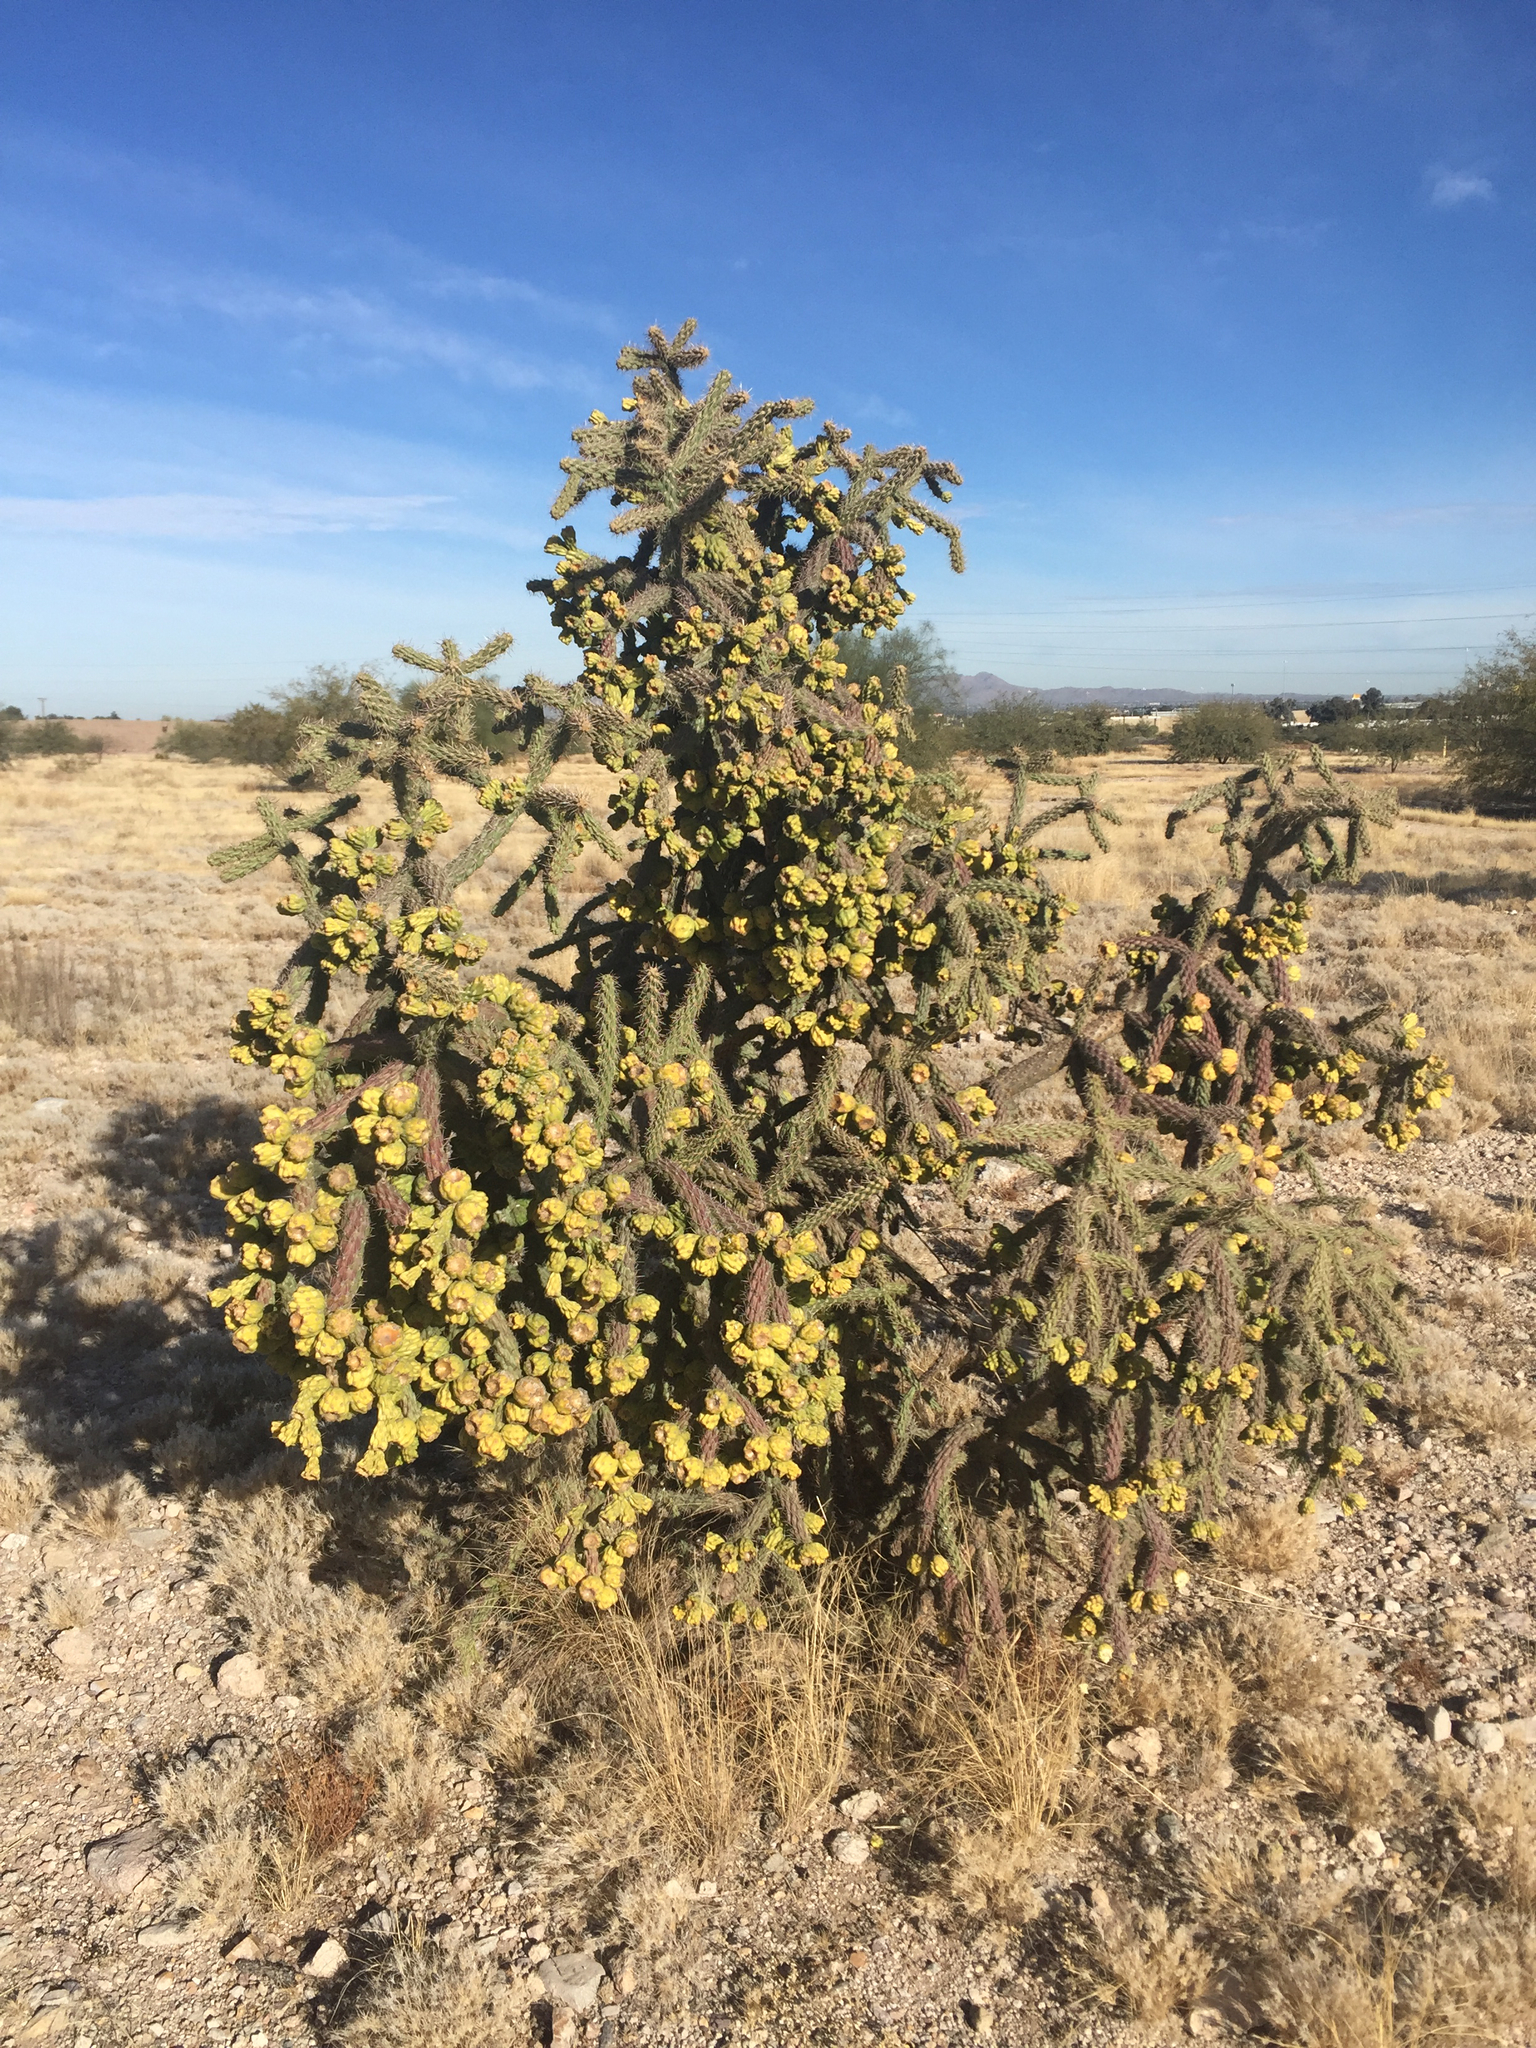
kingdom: Plantae
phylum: Tracheophyta
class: Magnoliopsida
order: Caryophyllales
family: Cactaceae
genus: Cylindropuntia
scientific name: Cylindropuntia imbricata
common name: Candelabrum cactus
